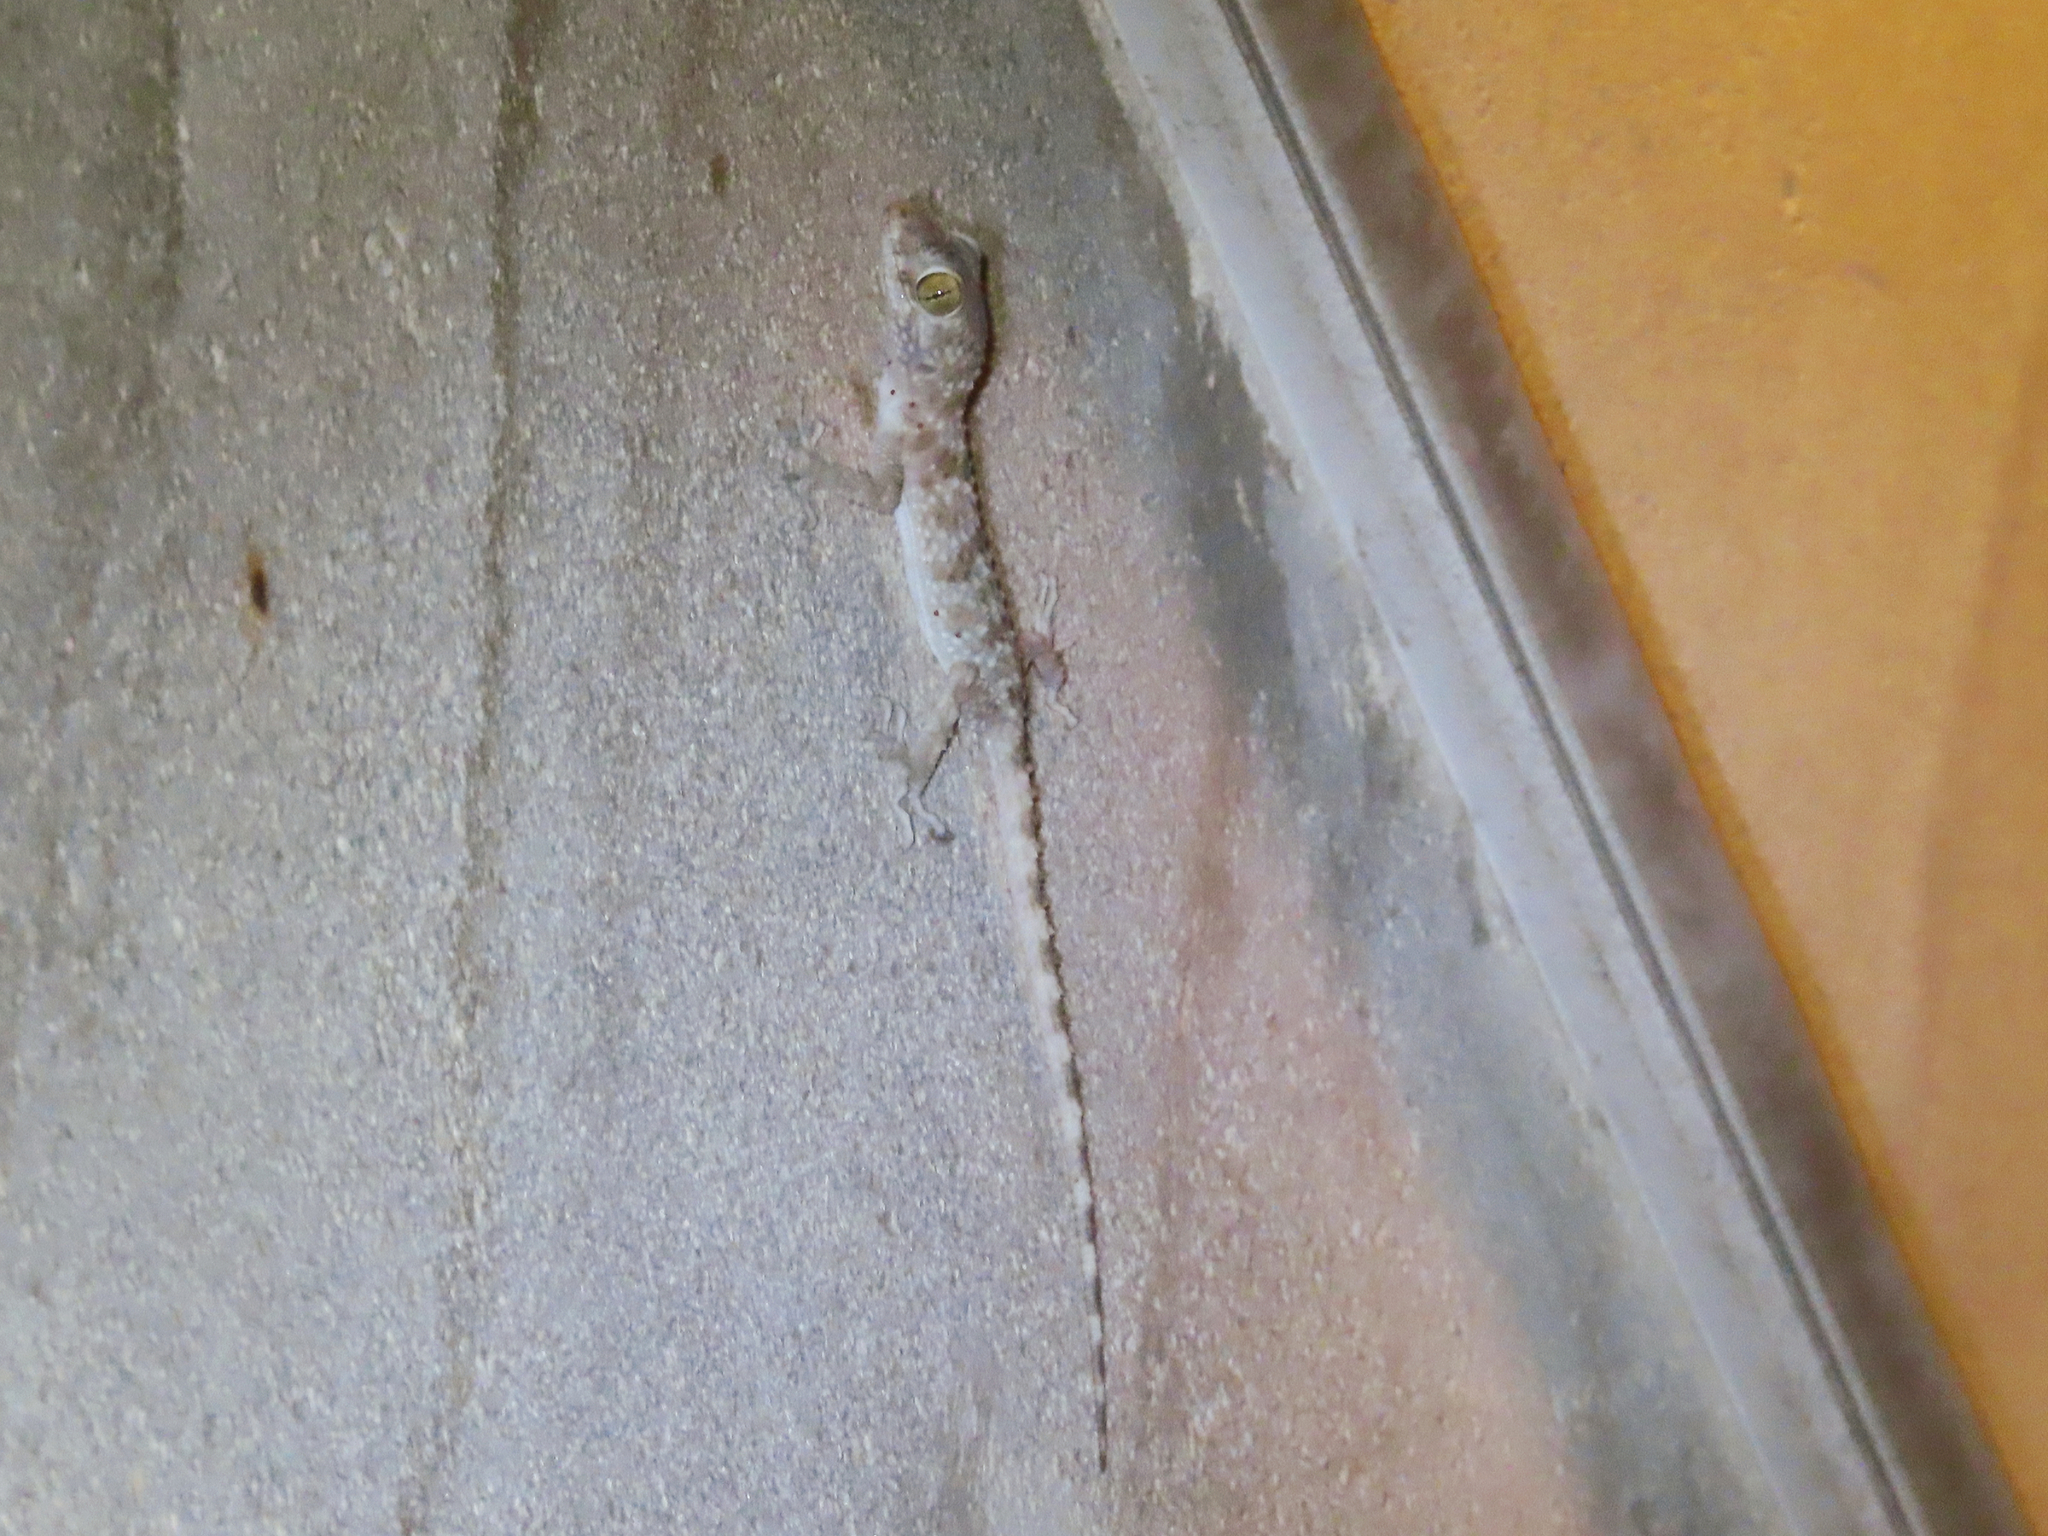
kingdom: Animalia
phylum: Chordata
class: Squamata
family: Gekkonidae
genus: Tenuidactylus
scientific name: Tenuidactylus caspius
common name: Caspian bent-toed gecko
